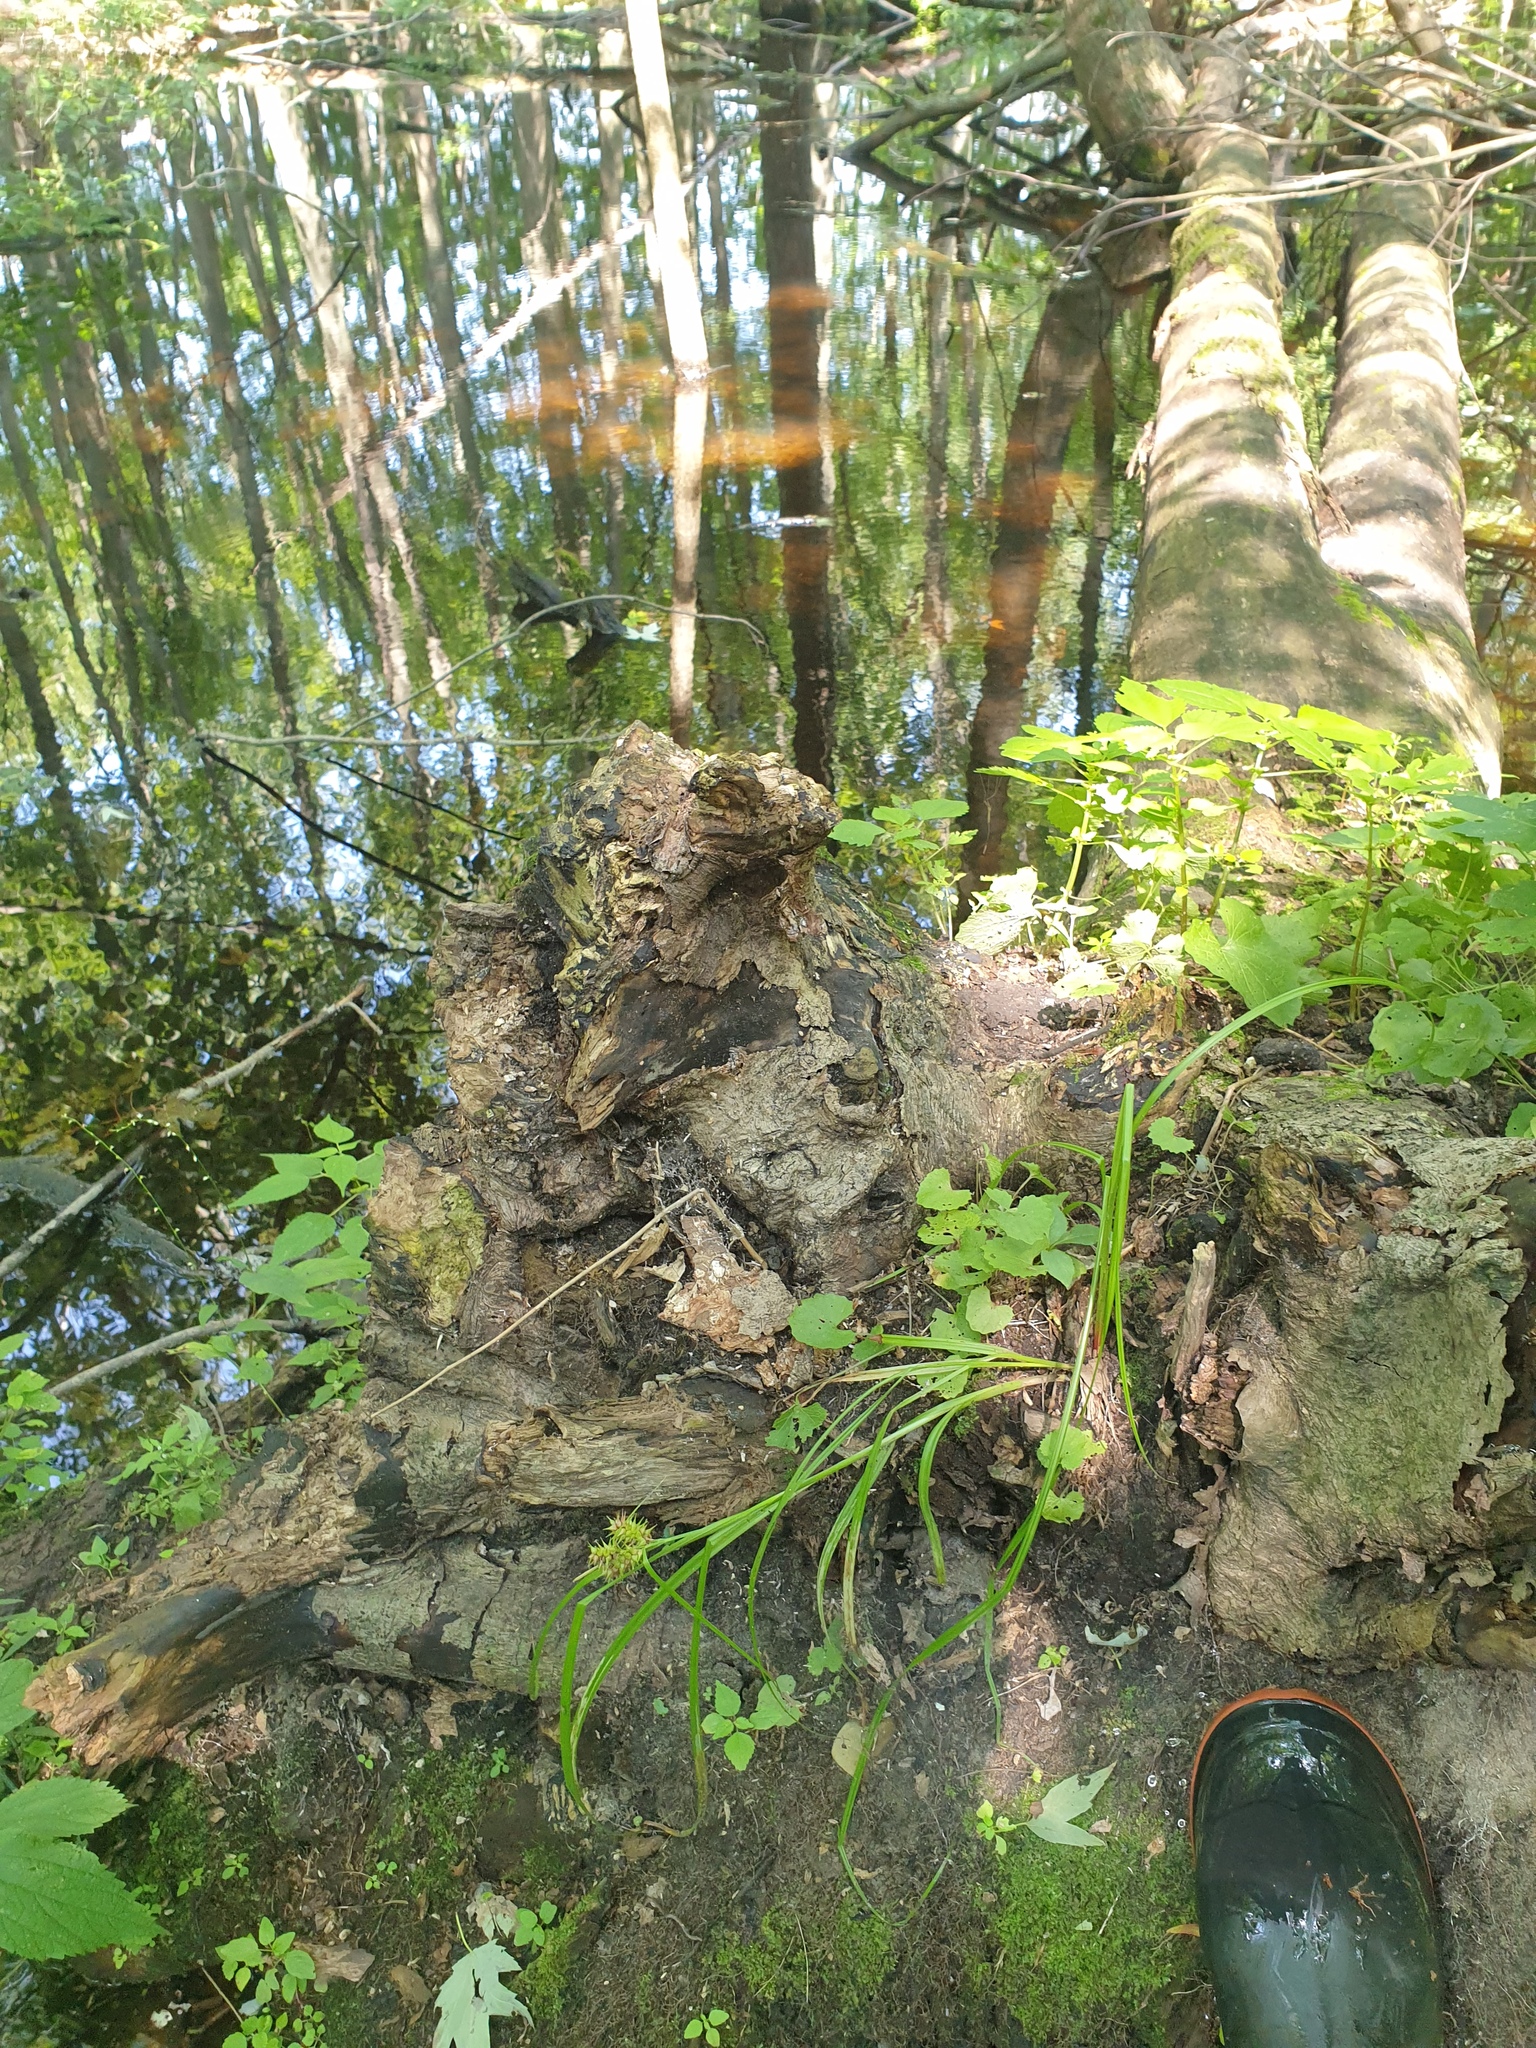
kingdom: Plantae
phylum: Tracheophyta
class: Liliopsida
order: Poales
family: Cyperaceae
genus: Carex
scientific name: Carex retrorsa
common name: Knot-sheath sedge
